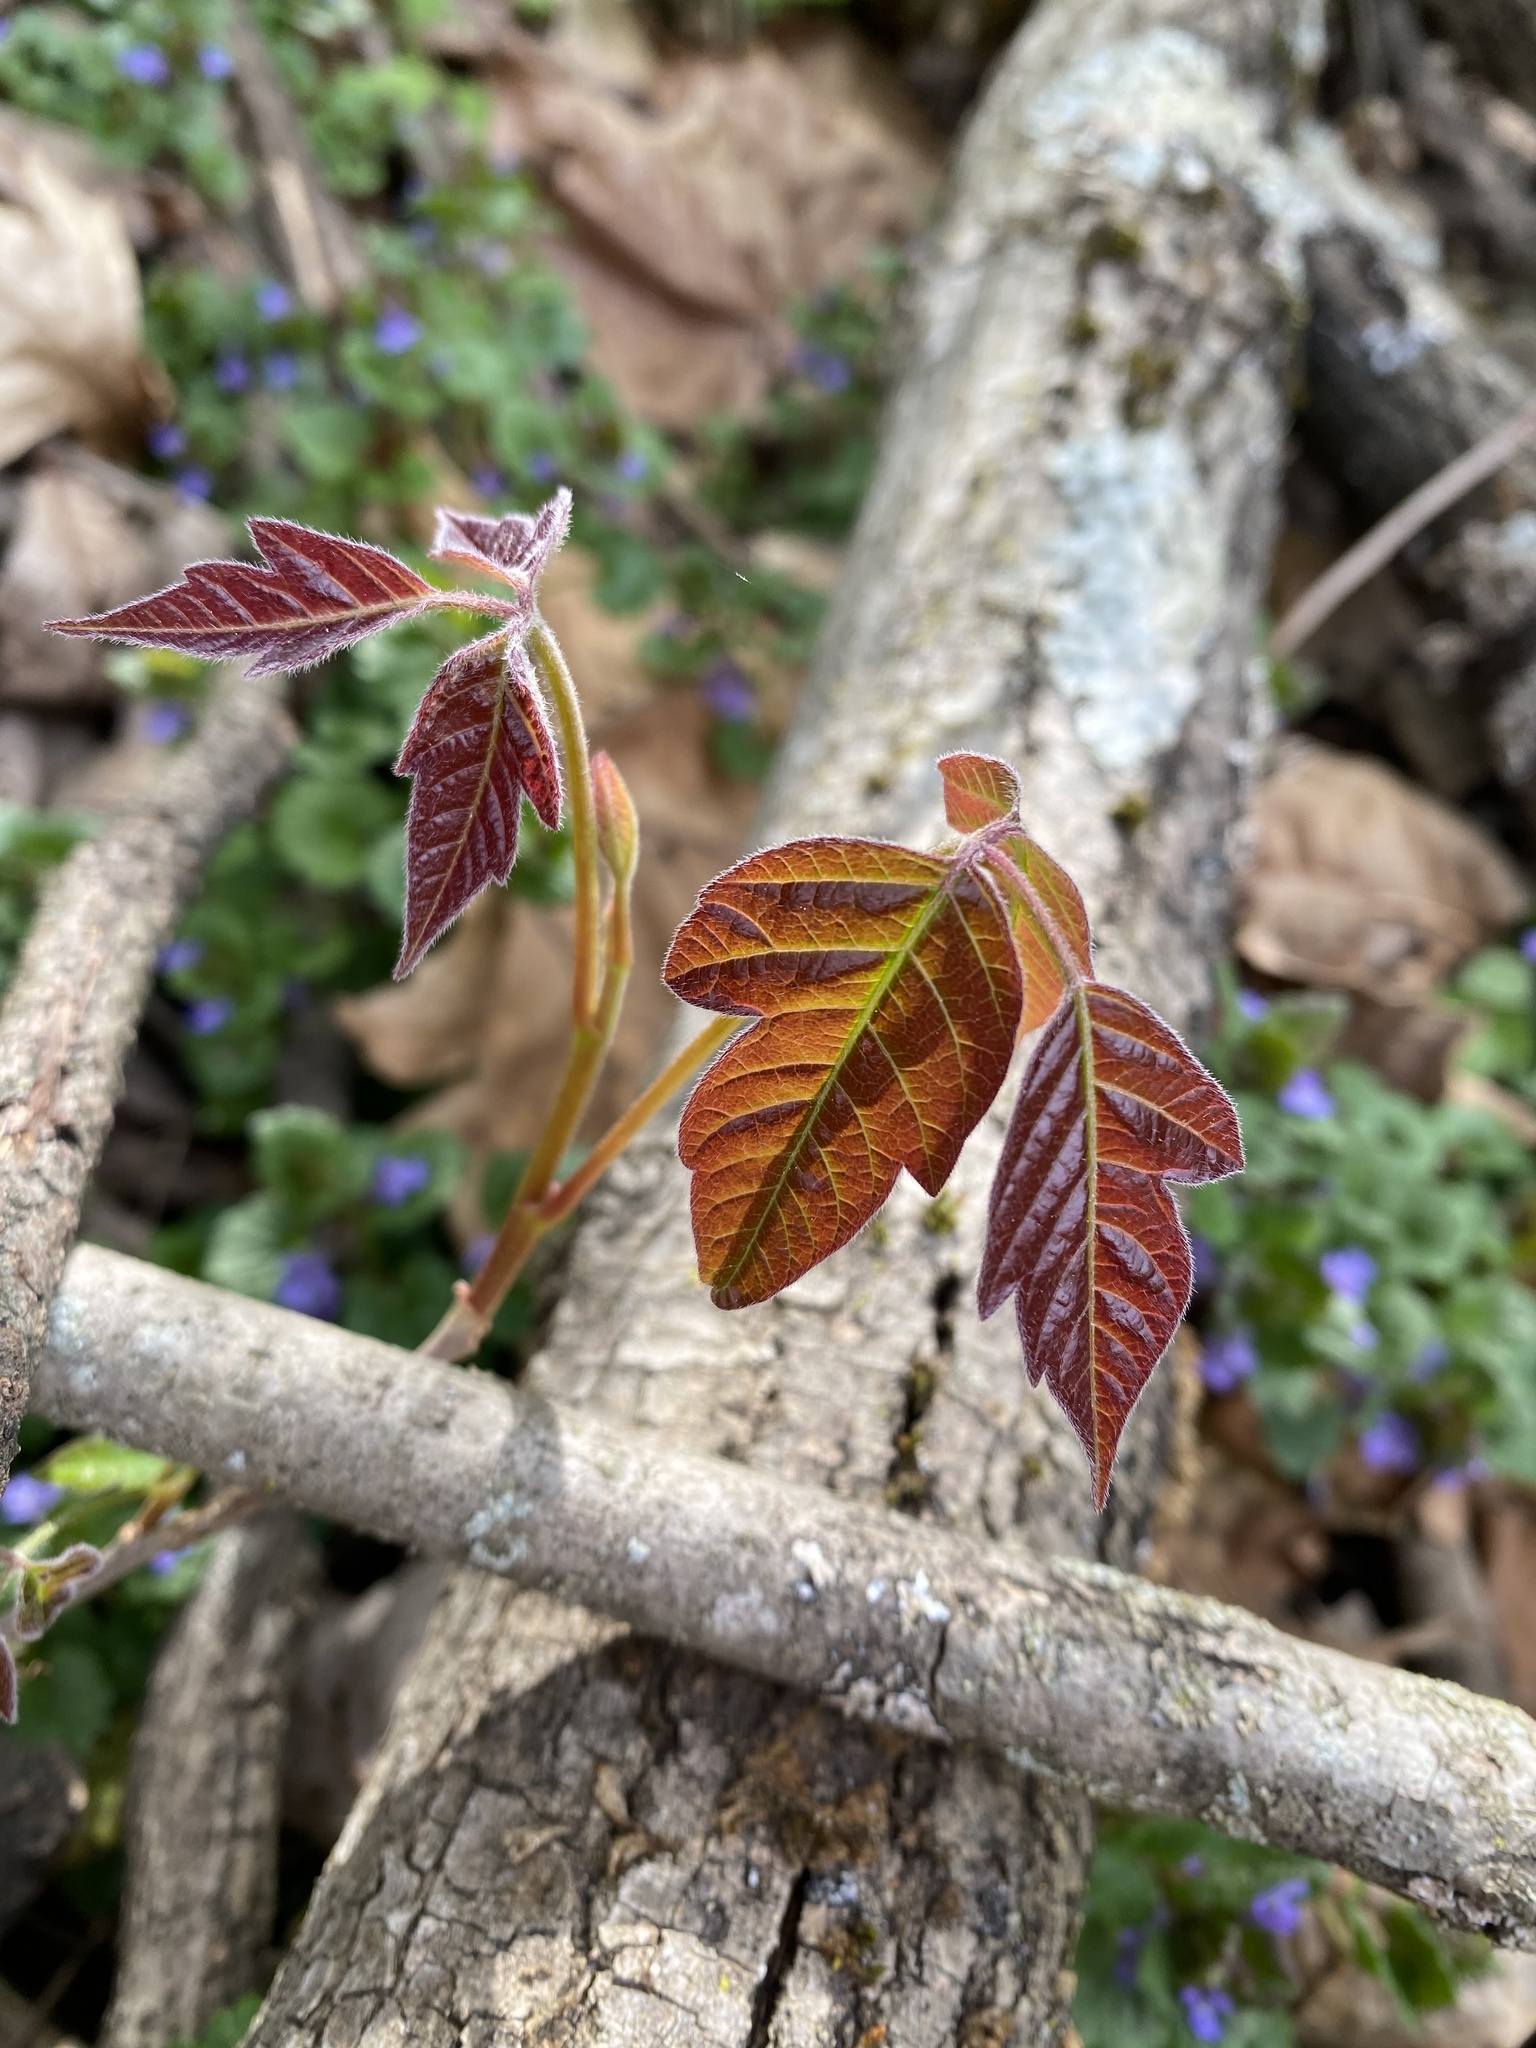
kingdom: Plantae
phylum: Tracheophyta
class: Magnoliopsida
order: Sapindales
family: Anacardiaceae
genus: Toxicodendron
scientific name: Toxicodendron radicans
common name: Poison ivy
